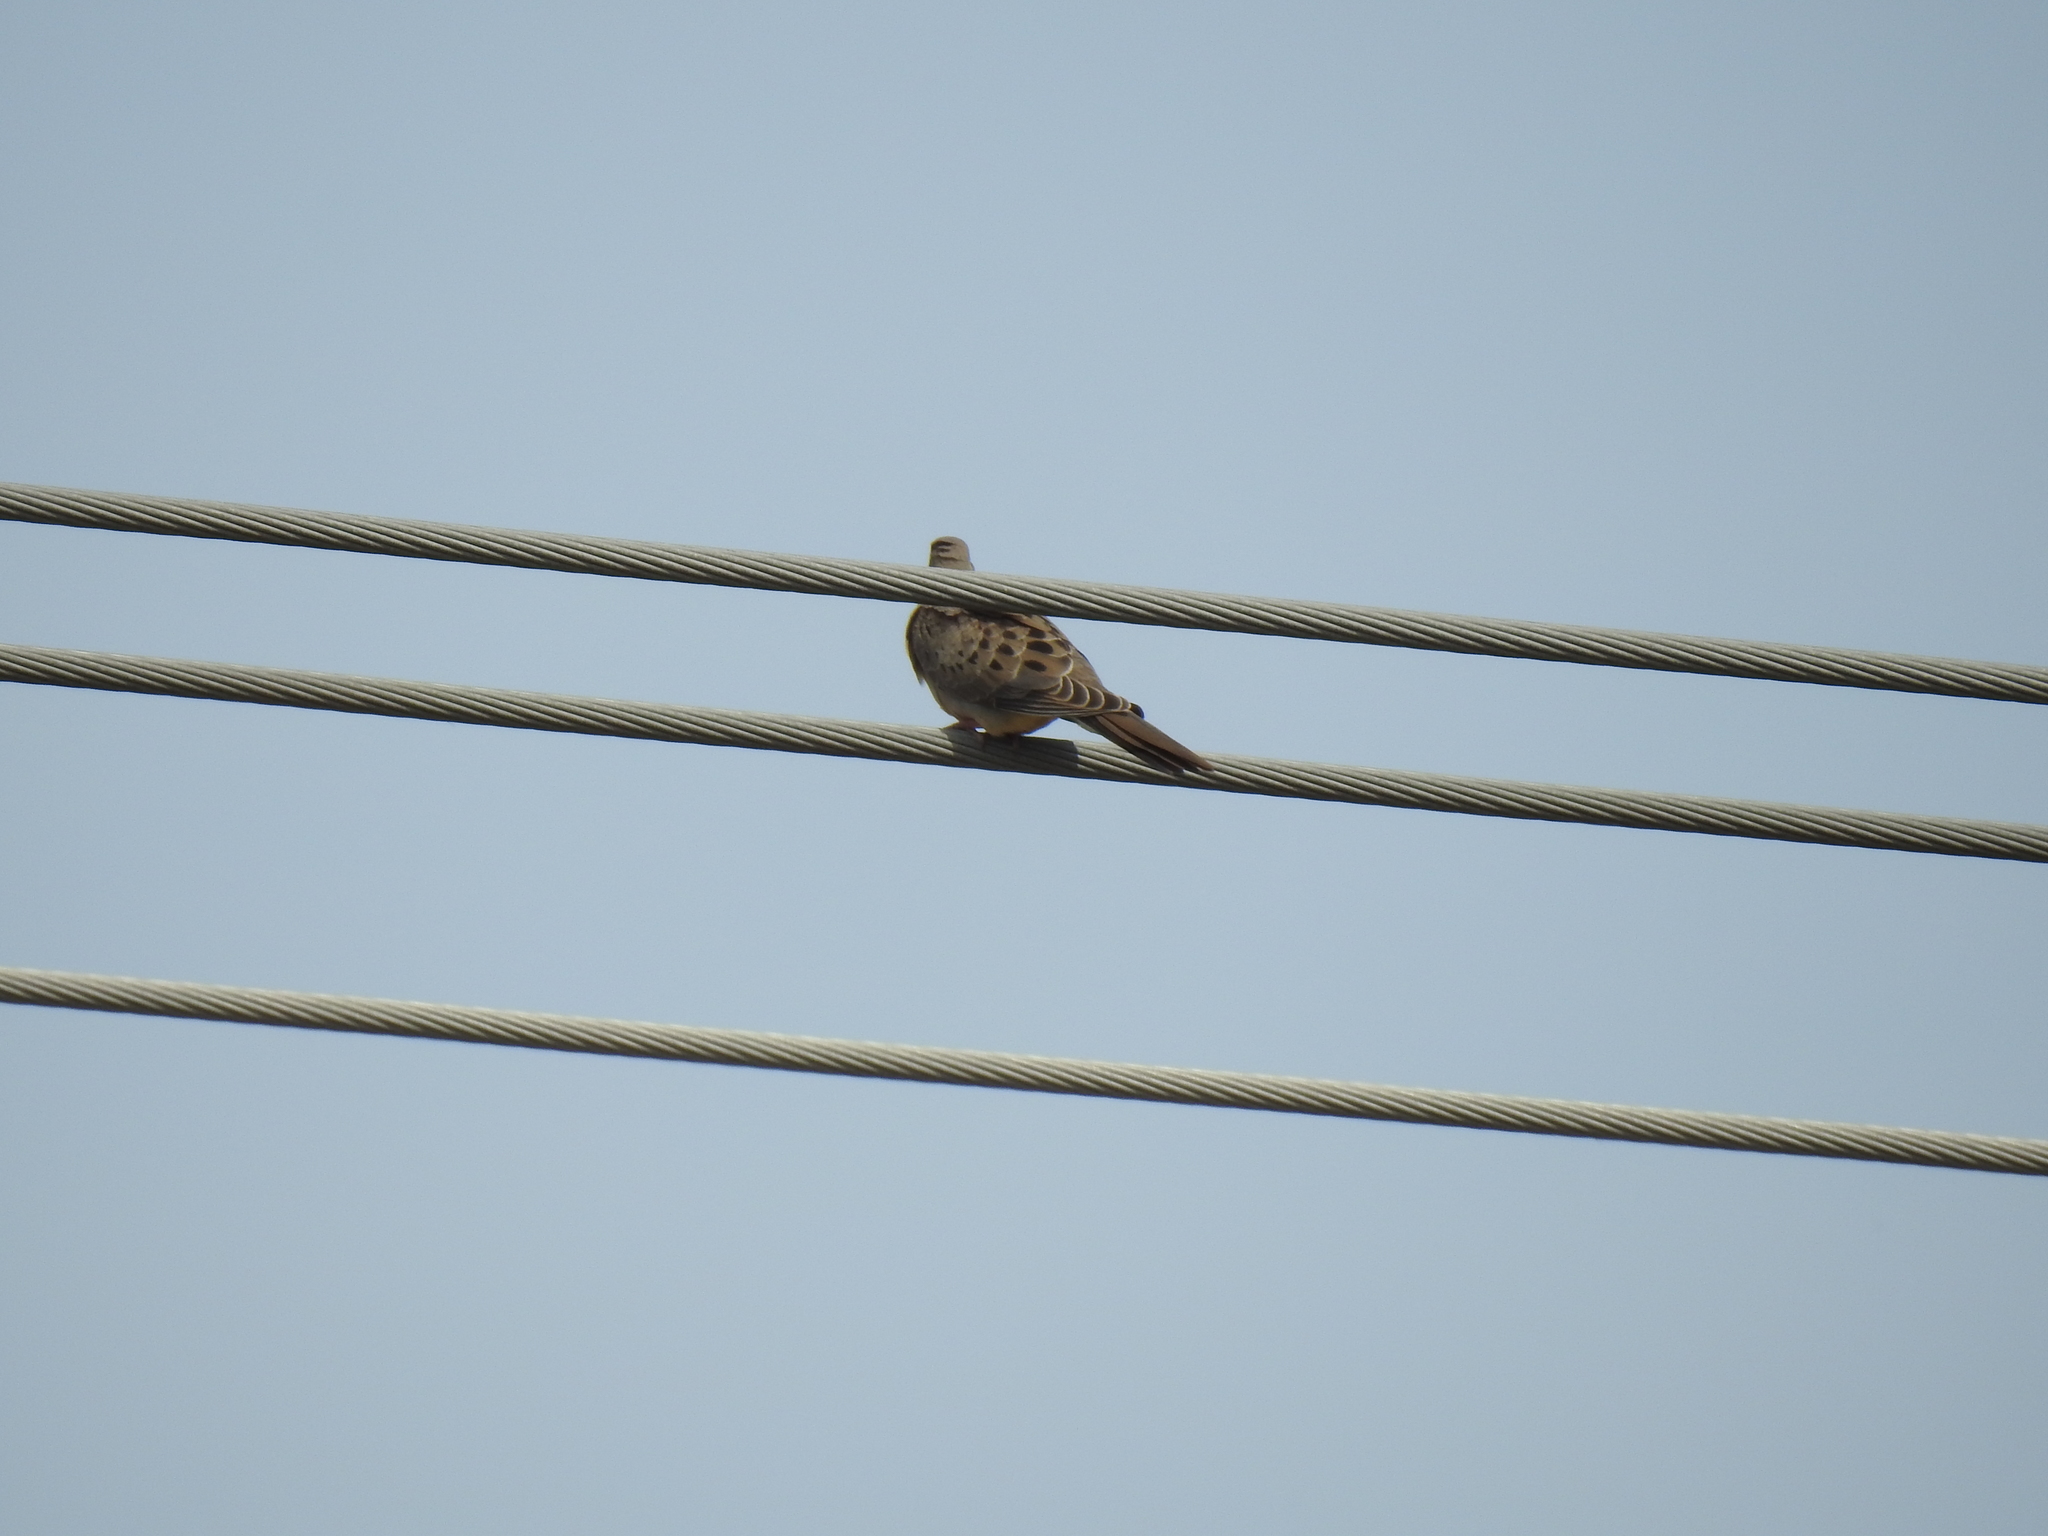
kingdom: Animalia
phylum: Chordata
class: Aves
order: Columbiformes
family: Columbidae
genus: Zenaida
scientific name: Zenaida macroura
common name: Mourning dove
